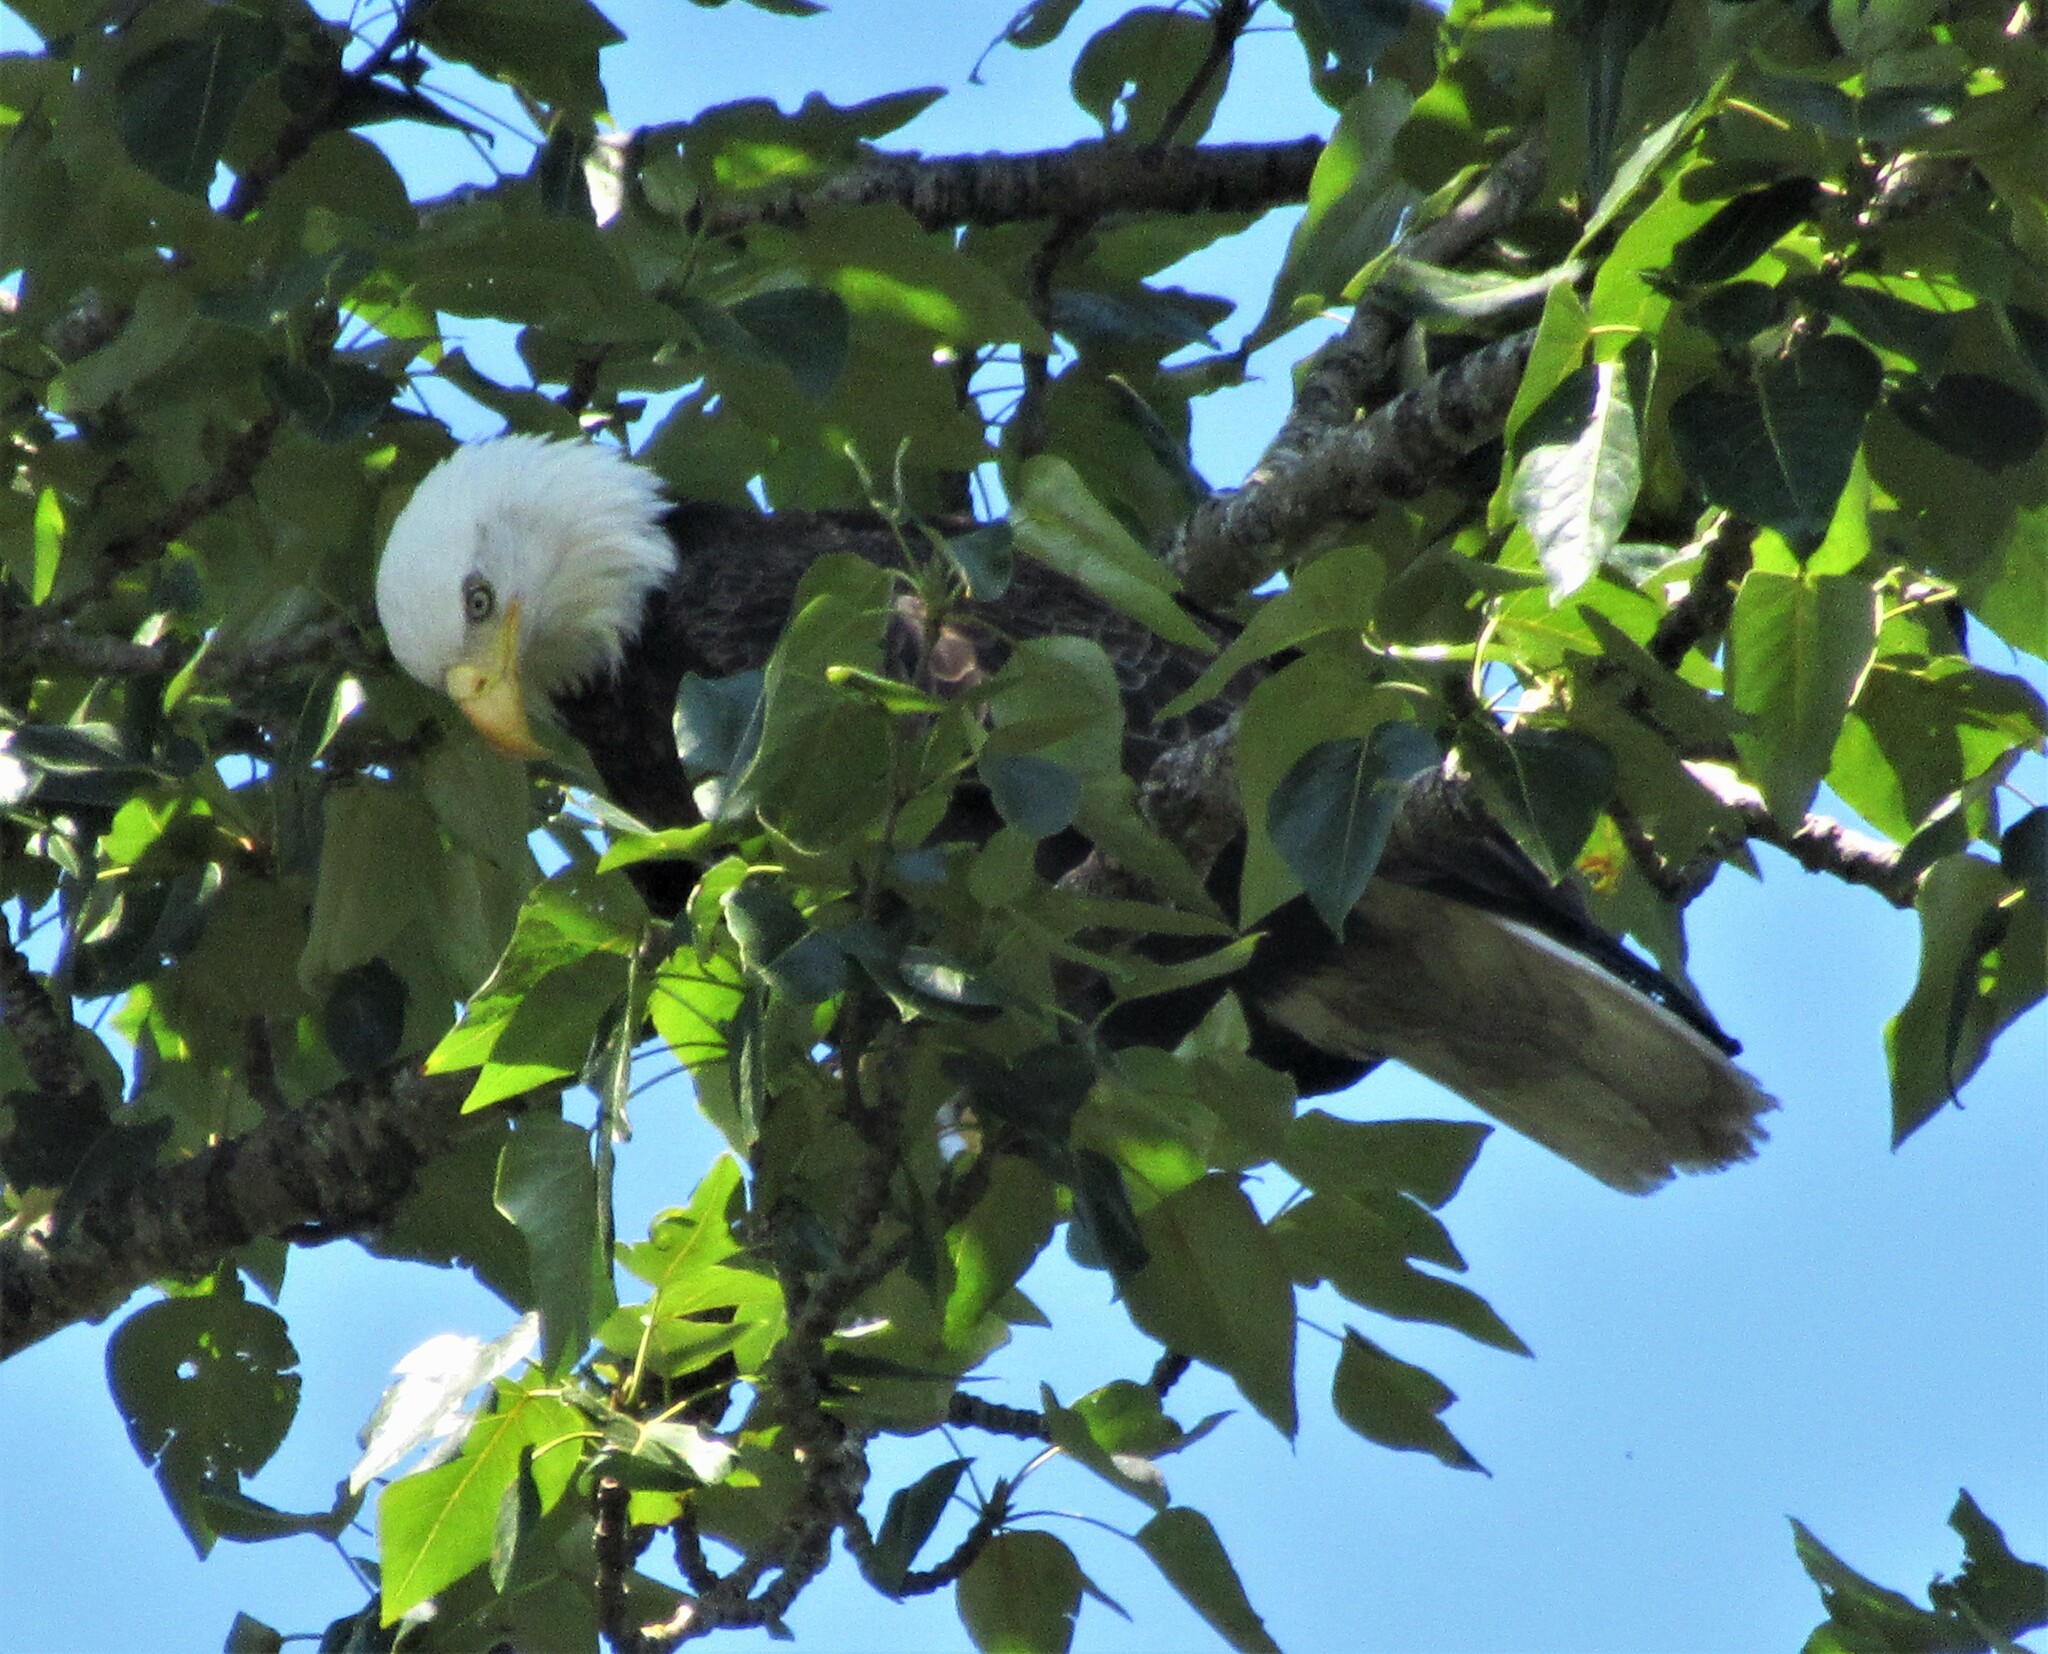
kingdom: Animalia
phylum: Chordata
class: Aves
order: Accipitriformes
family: Accipitridae
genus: Haliaeetus
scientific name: Haliaeetus leucocephalus
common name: Bald eagle
